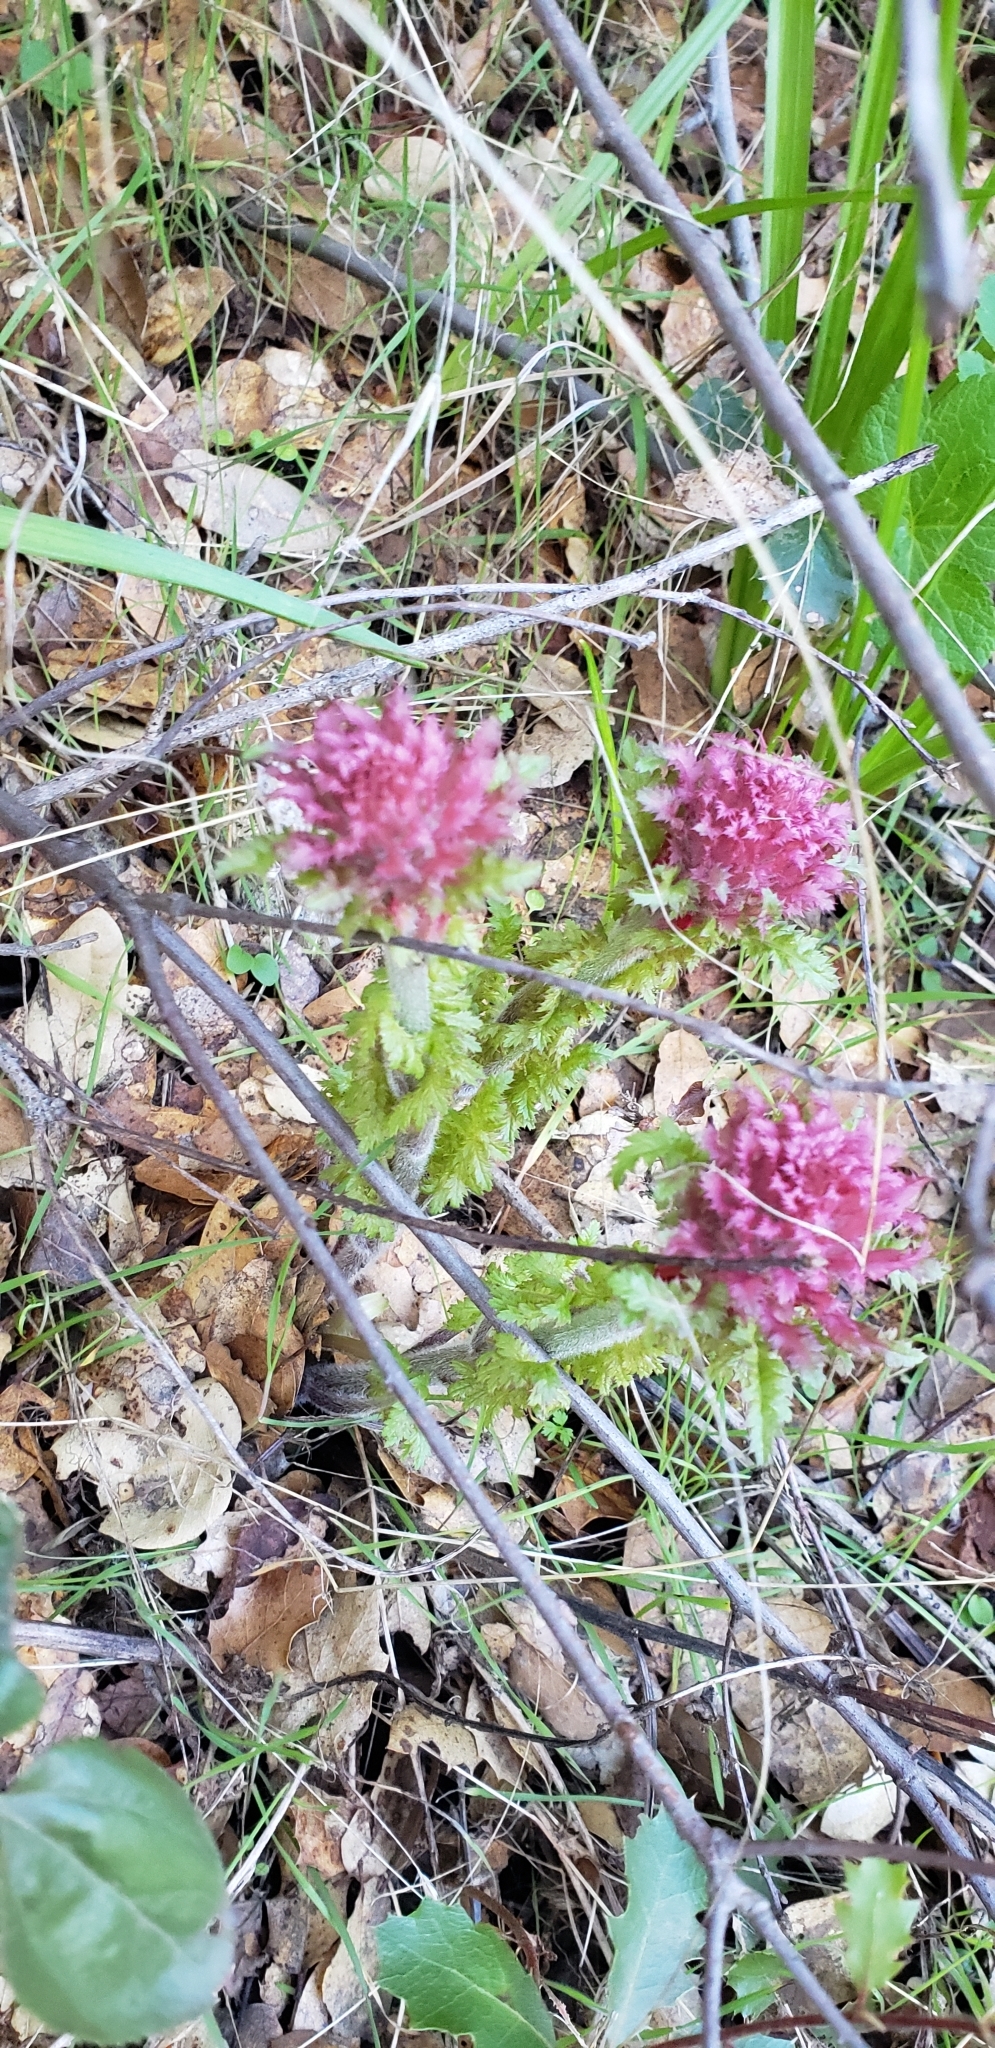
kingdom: Plantae
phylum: Tracheophyta
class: Magnoliopsida
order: Lamiales
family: Orobanchaceae
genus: Pedicularis
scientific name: Pedicularis densiflora
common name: Indian warrior
